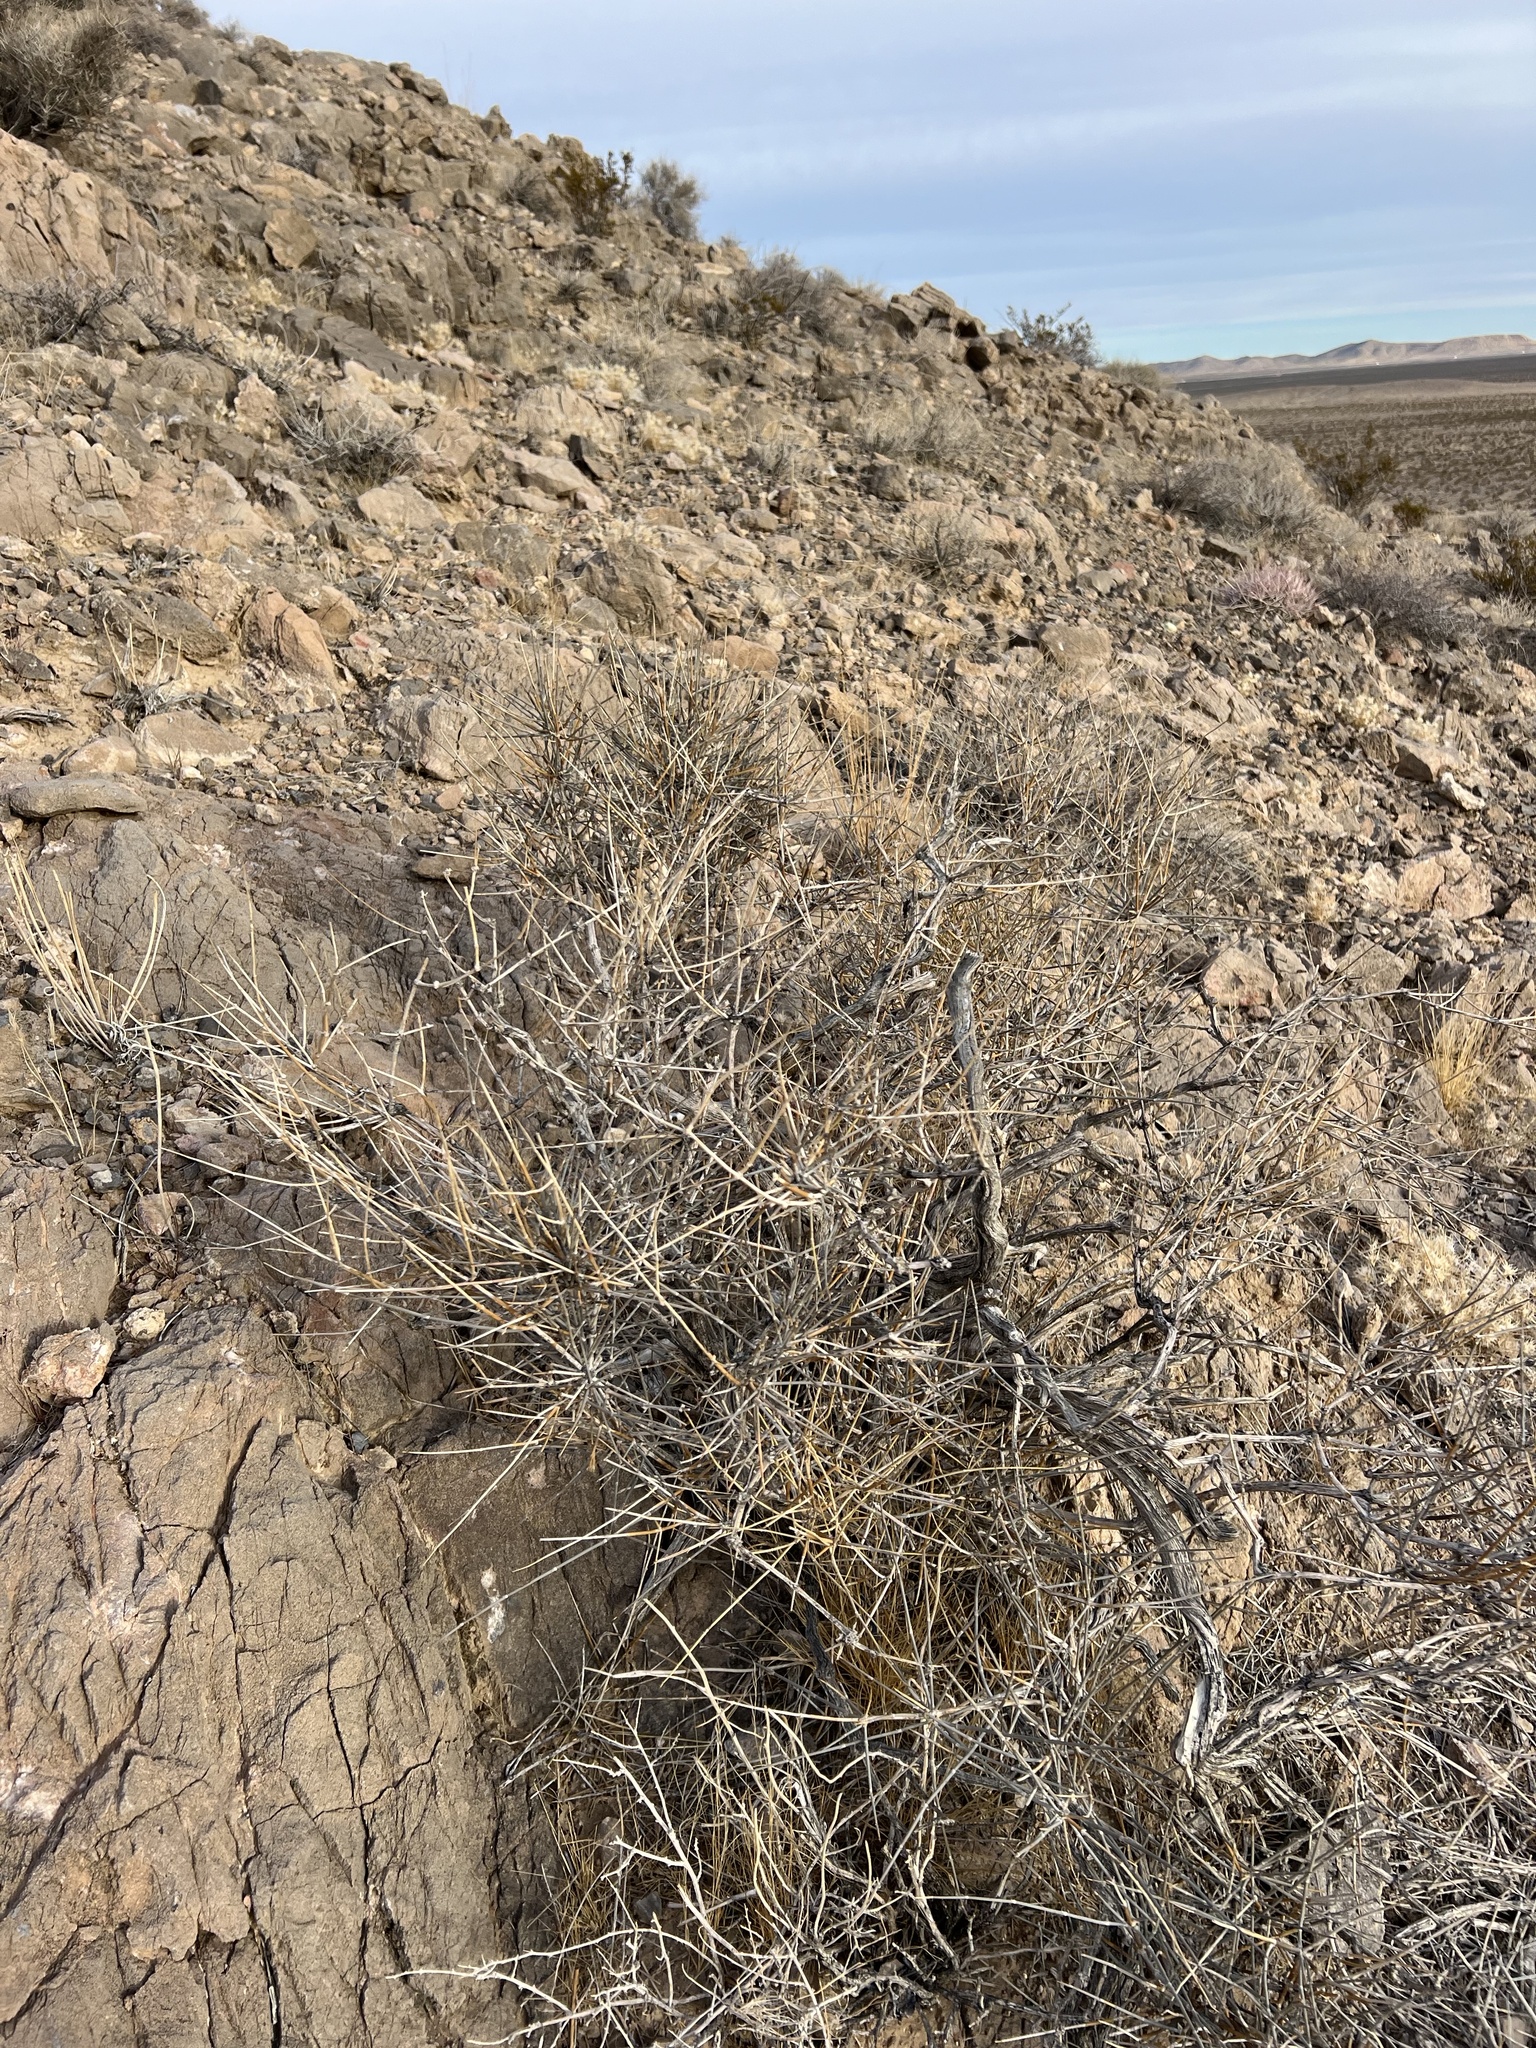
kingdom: Plantae
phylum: Tracheophyta
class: Gnetopsida
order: Ephedrales
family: Ephedraceae
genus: Ephedra
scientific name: Ephedra nevadensis
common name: Gray ephedra
